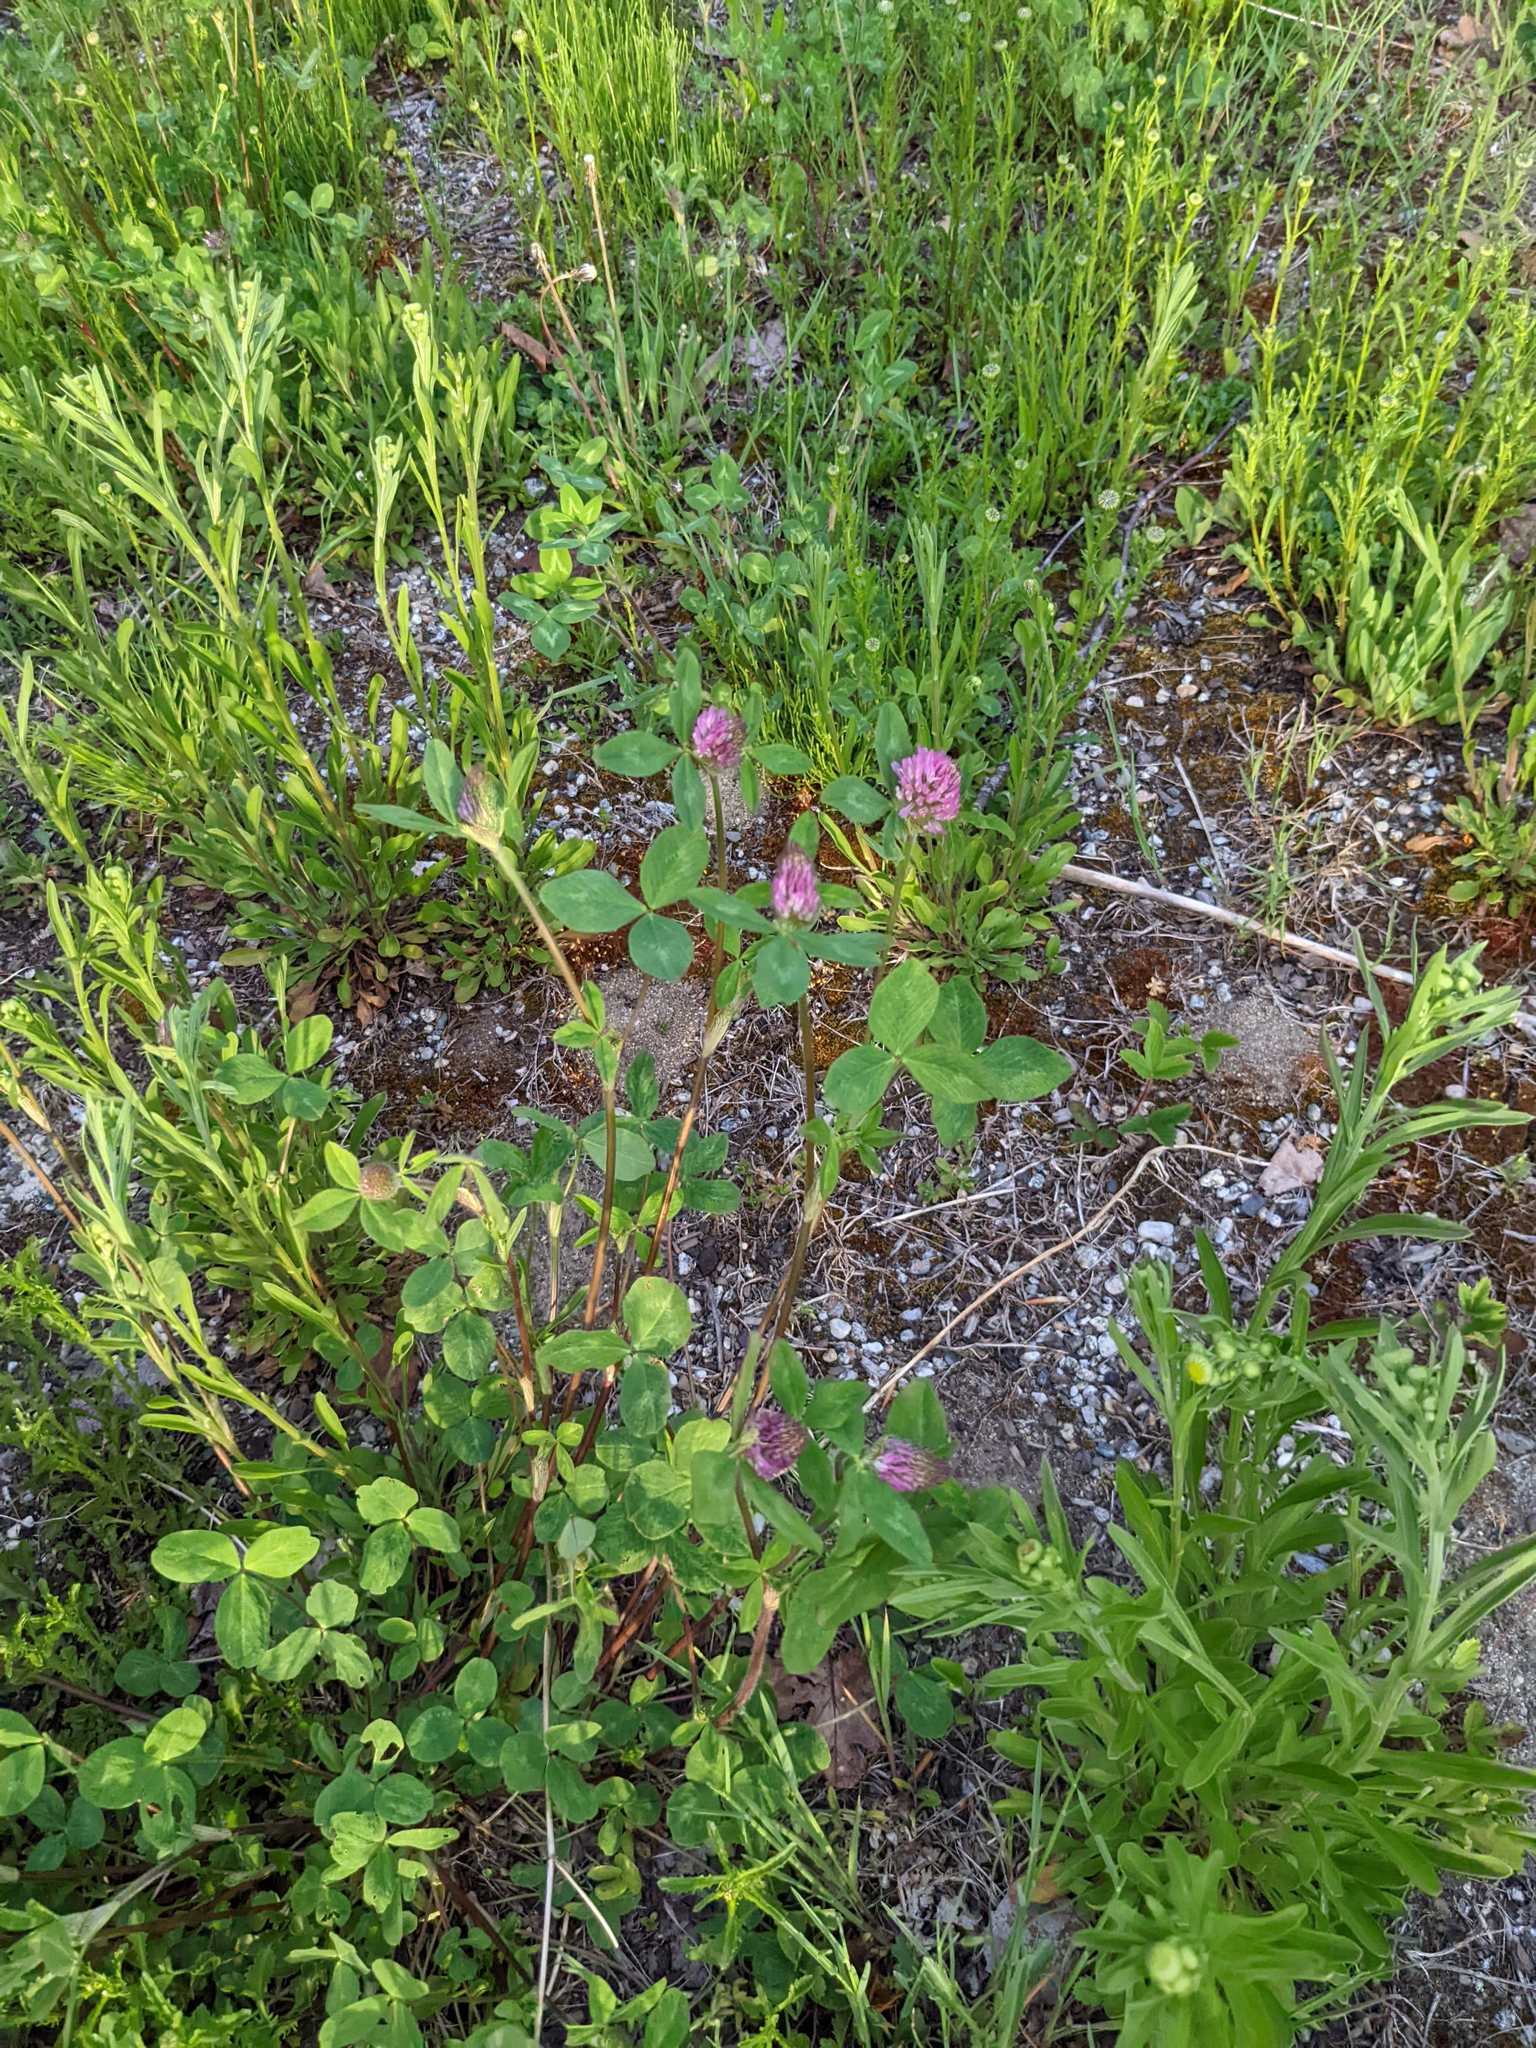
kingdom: Plantae
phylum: Tracheophyta
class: Magnoliopsida
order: Fabales
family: Fabaceae
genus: Trifolium
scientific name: Trifolium pratense
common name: Red clover
